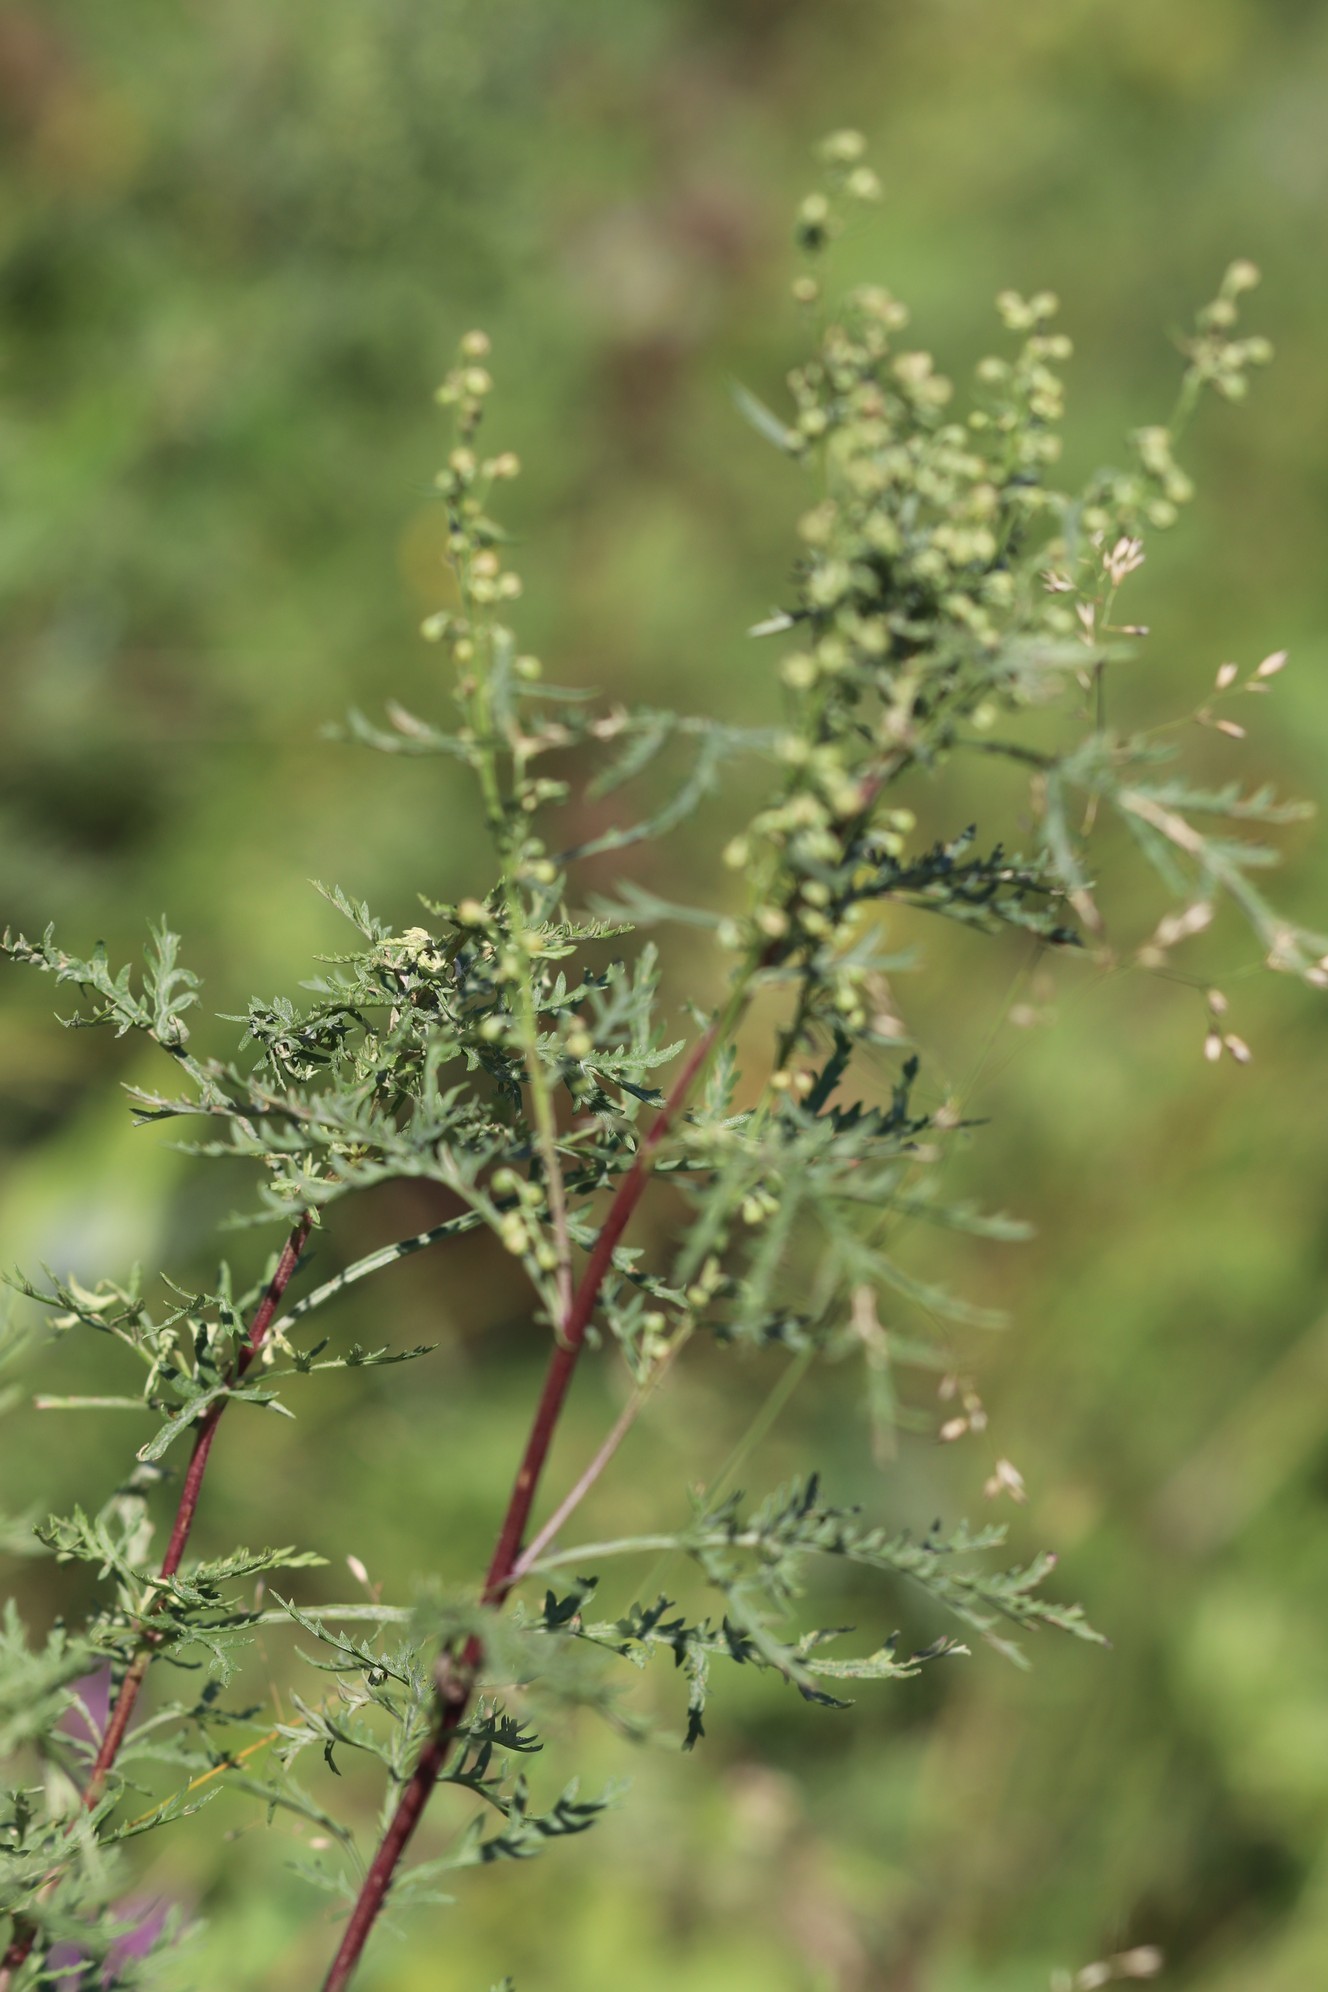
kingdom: Plantae
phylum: Tracheophyta
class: Magnoliopsida
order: Asterales
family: Asteraceae
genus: Artemisia
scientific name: Artemisia gmelinii
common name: Gmelin's wormwood
